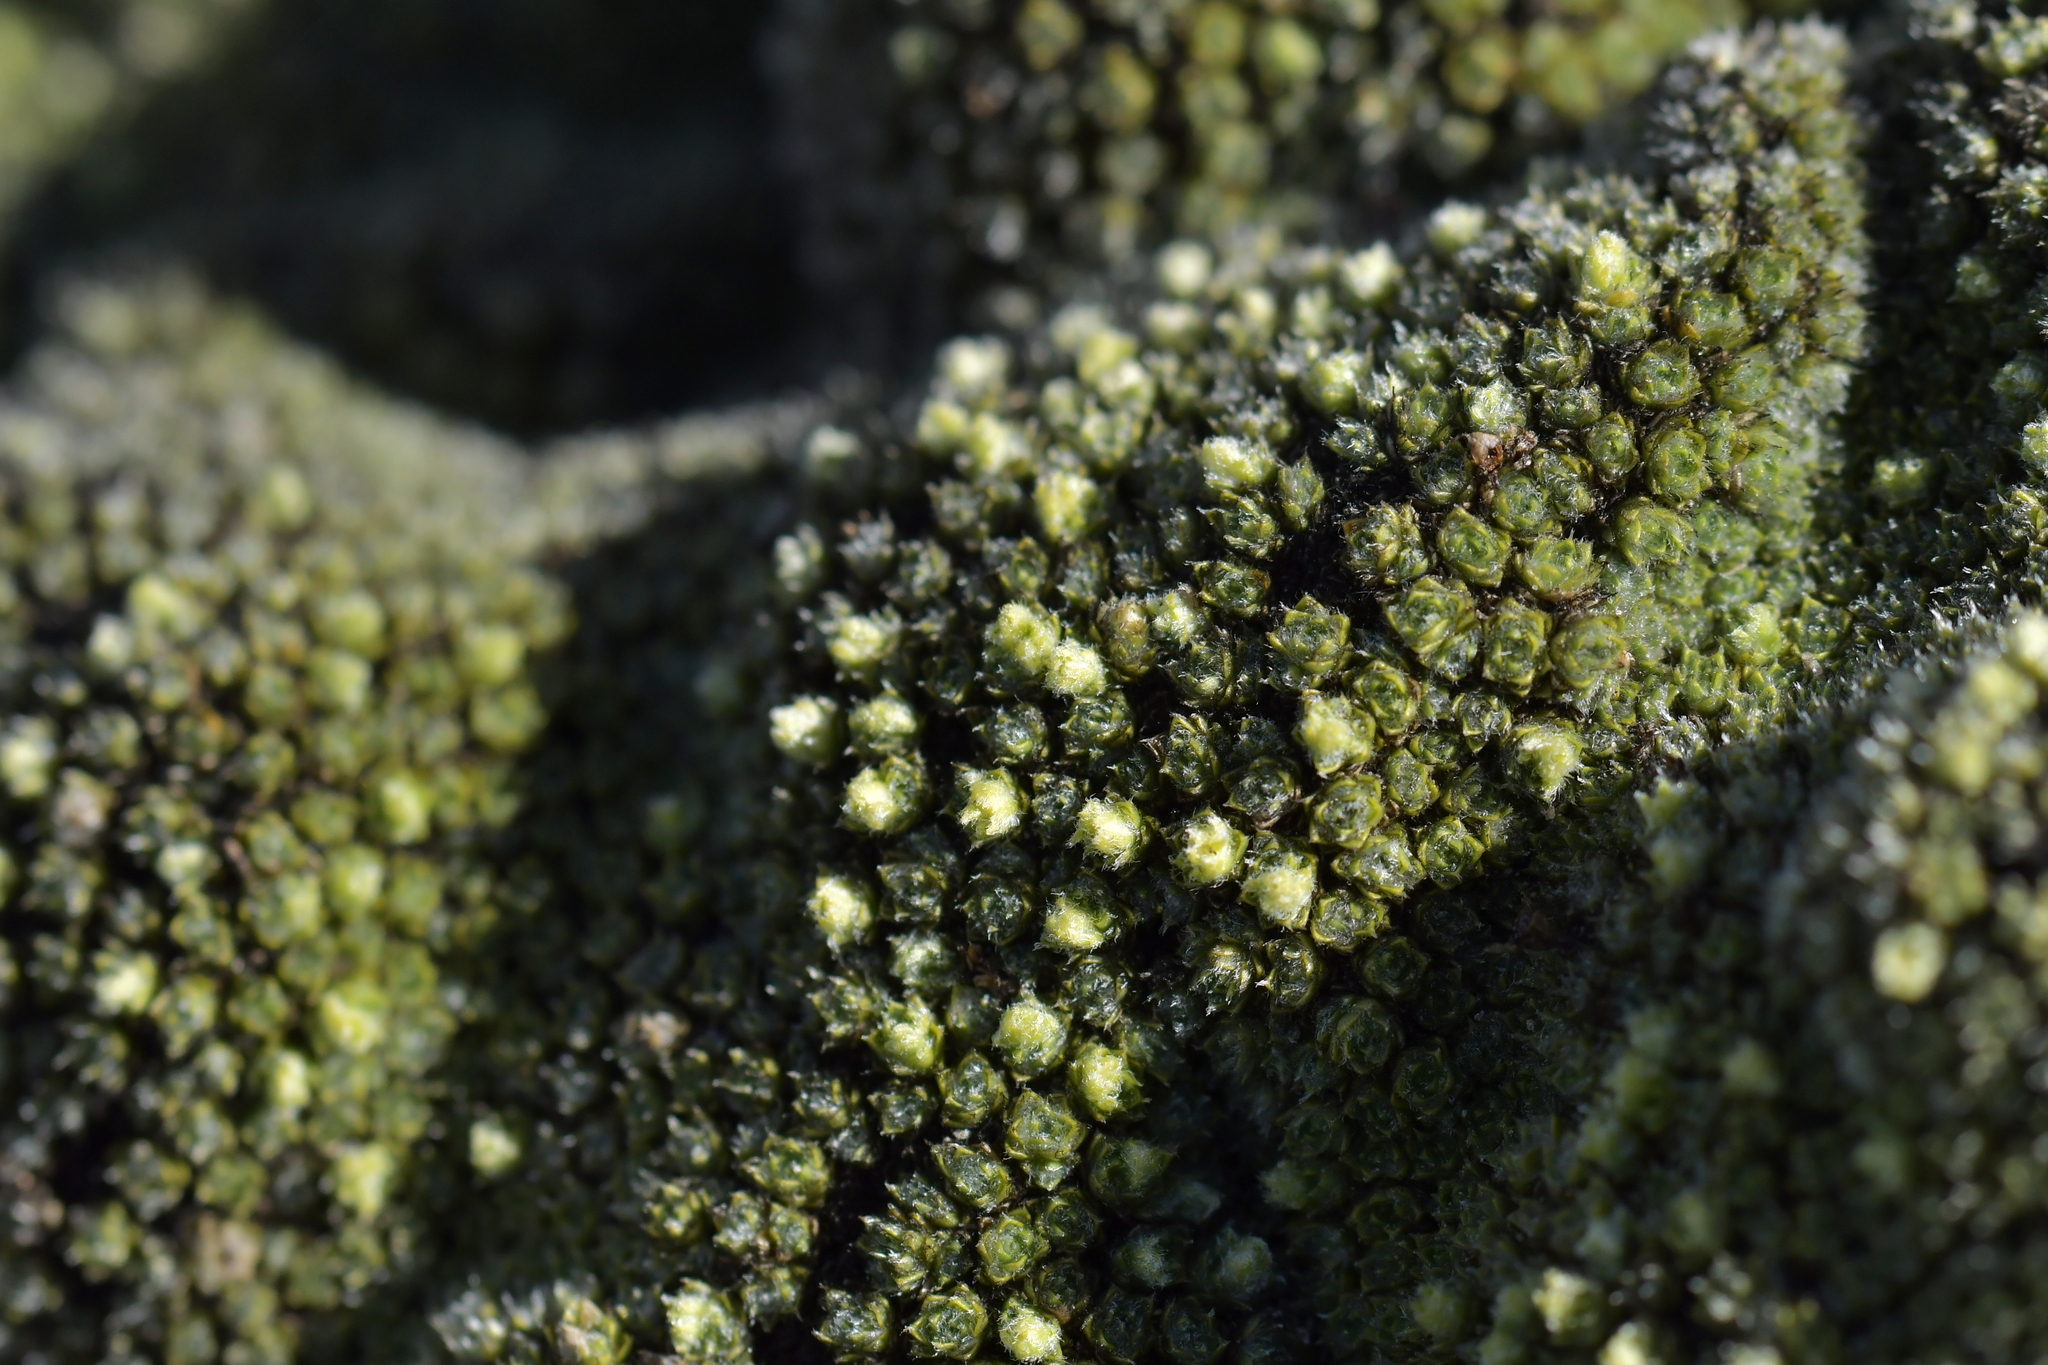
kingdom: Plantae
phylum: Tracheophyta
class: Magnoliopsida
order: Lamiales
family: Plantaginaceae
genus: Veronica
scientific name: Veronica thomsonii
